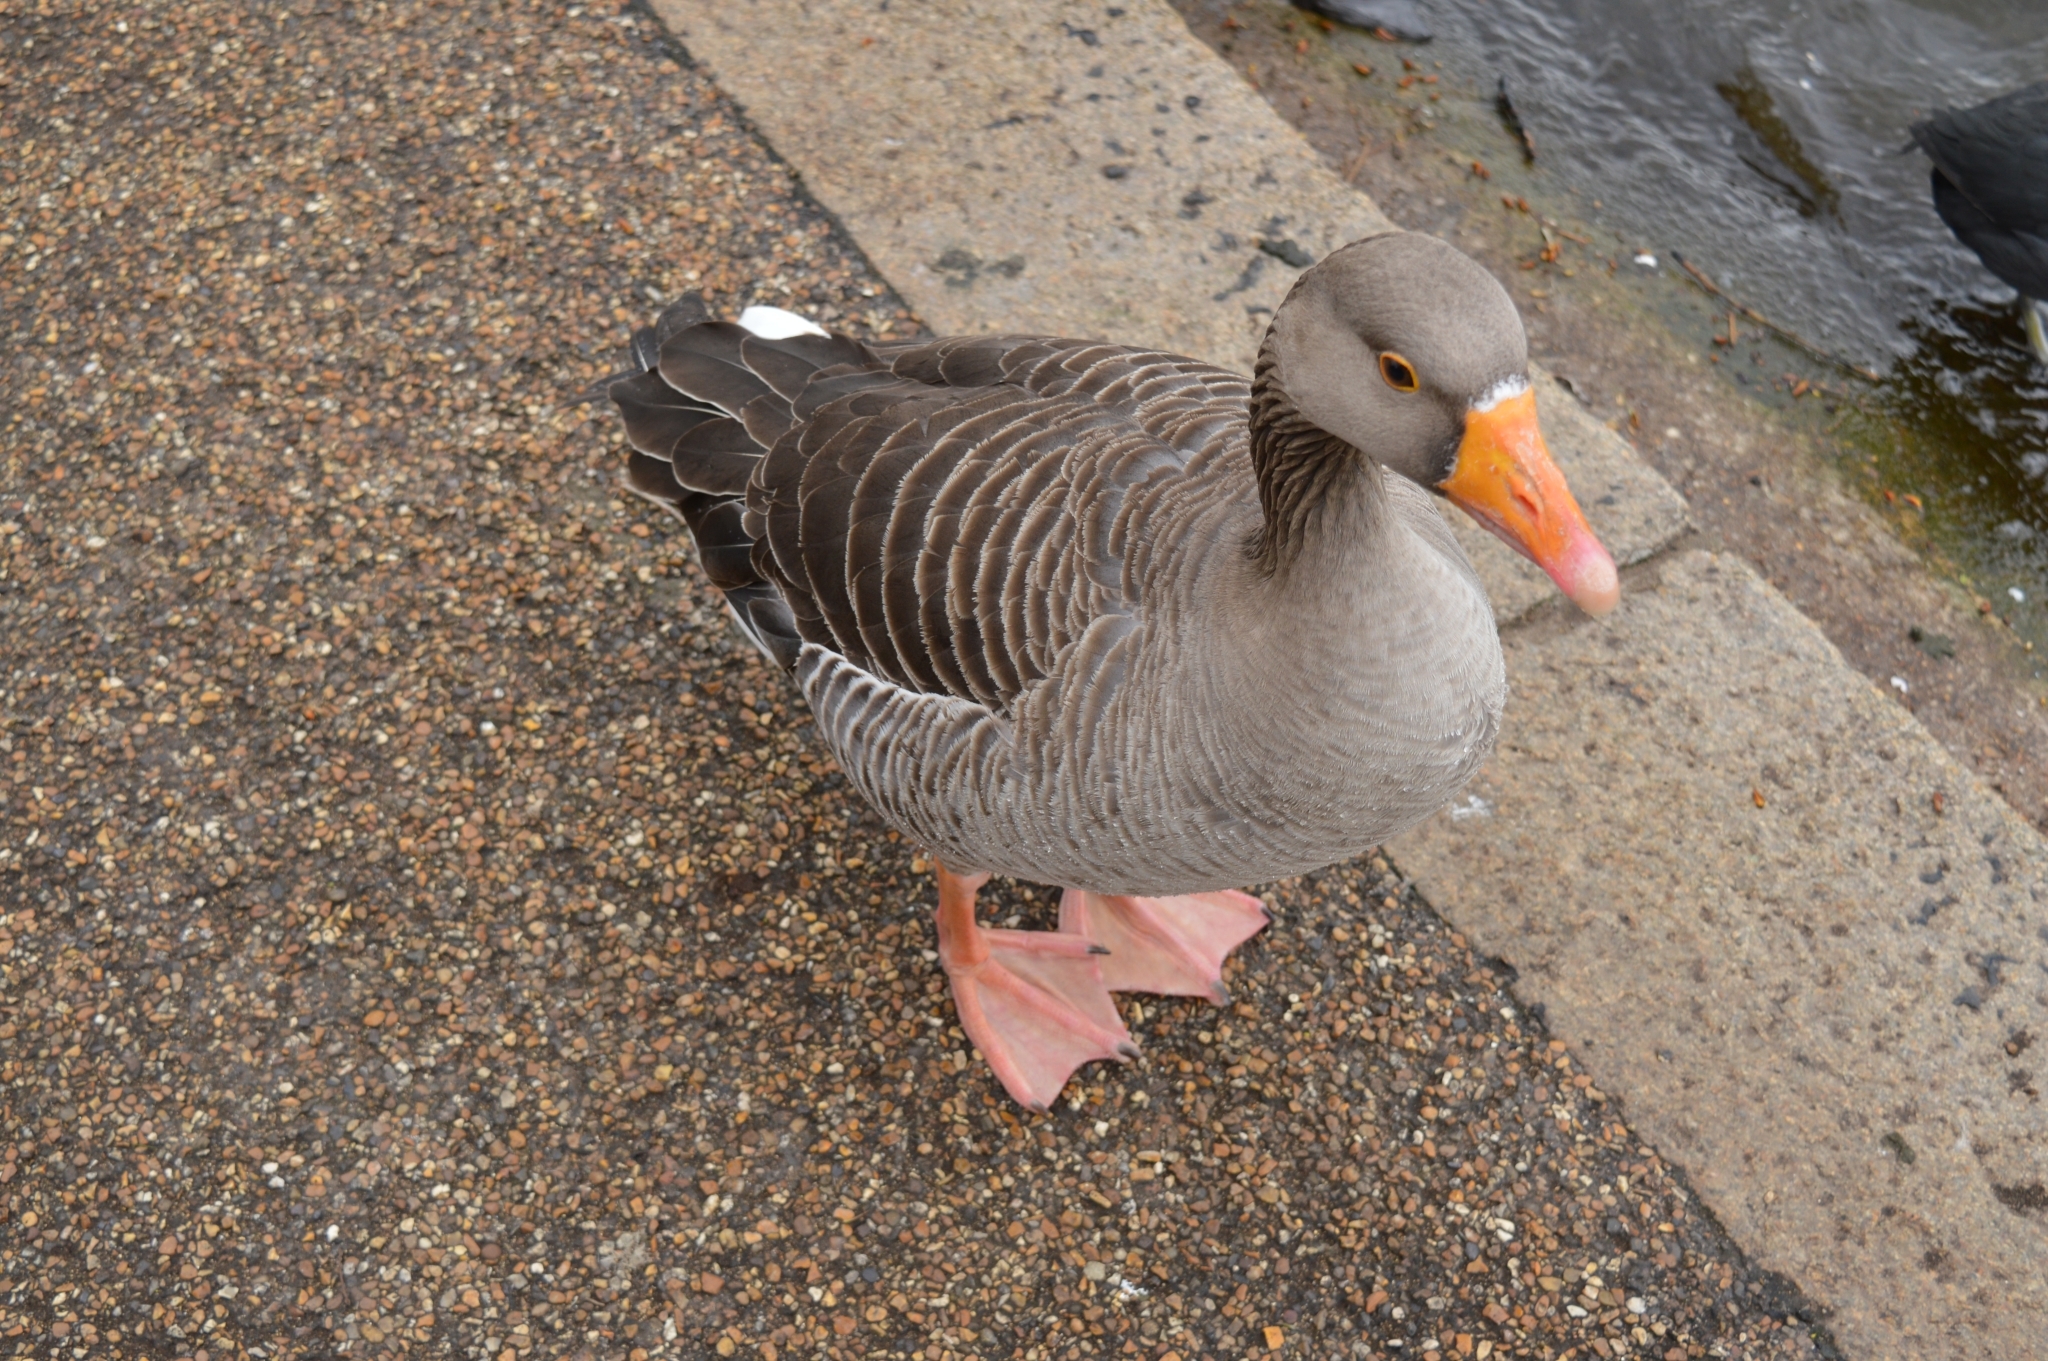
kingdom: Animalia
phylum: Chordata
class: Aves
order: Anseriformes
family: Anatidae
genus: Anser
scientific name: Anser anser
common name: Greylag goose
